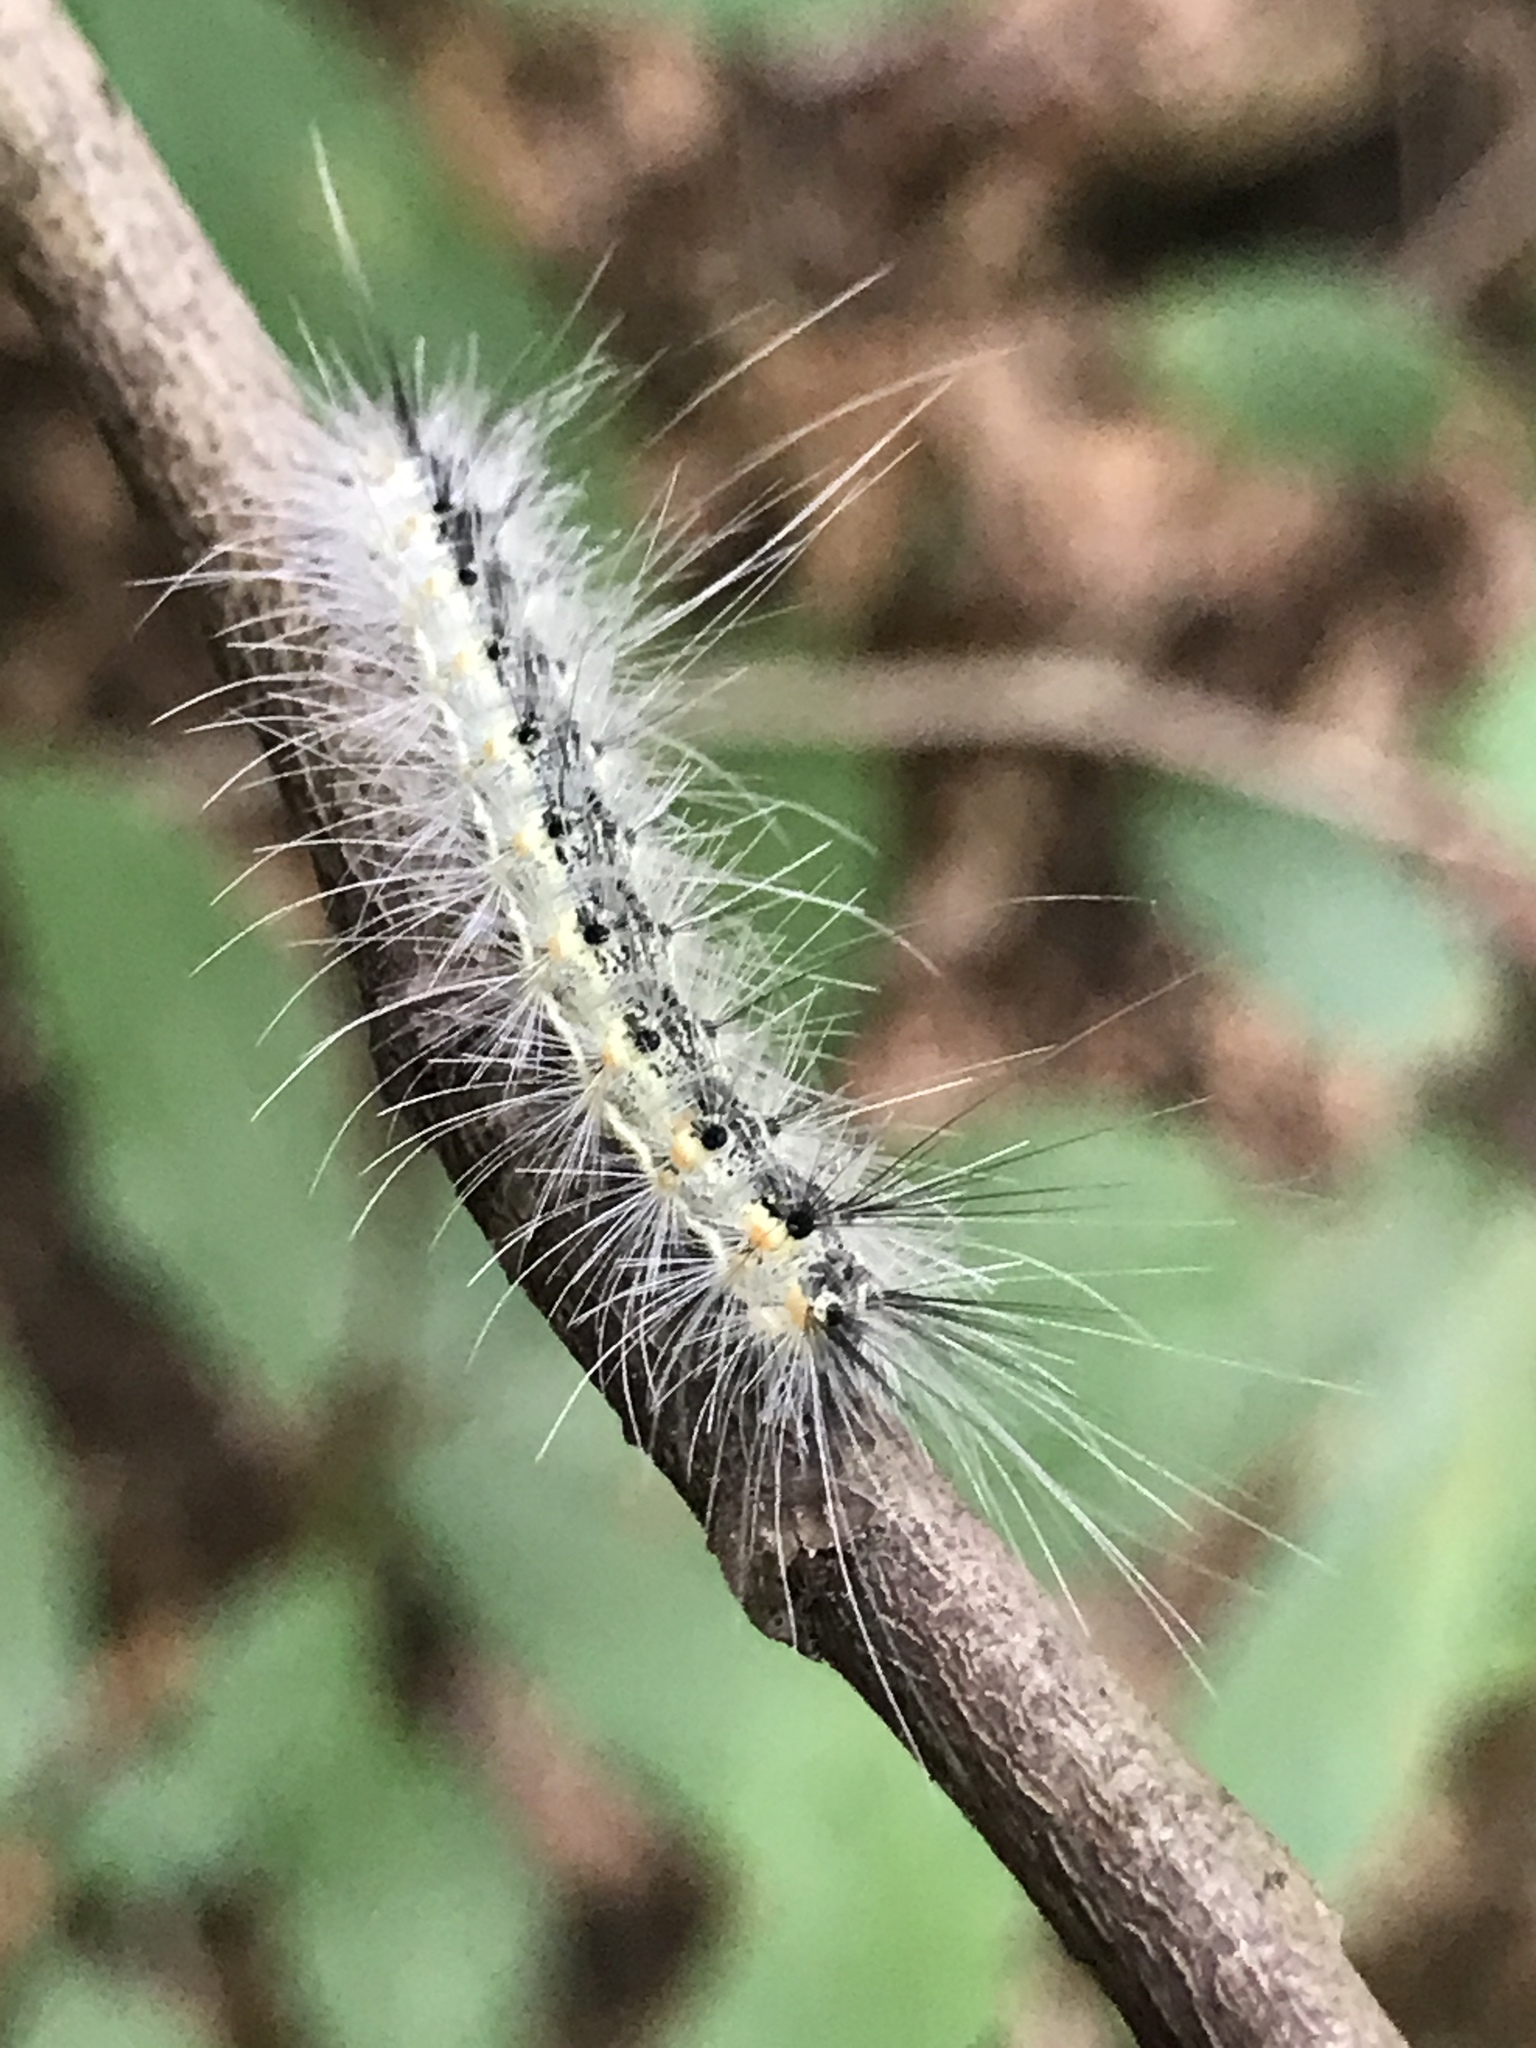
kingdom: Animalia
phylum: Arthropoda
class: Insecta
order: Lepidoptera
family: Erebidae
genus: Hyphantria
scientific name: Hyphantria cunea
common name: American white moth
